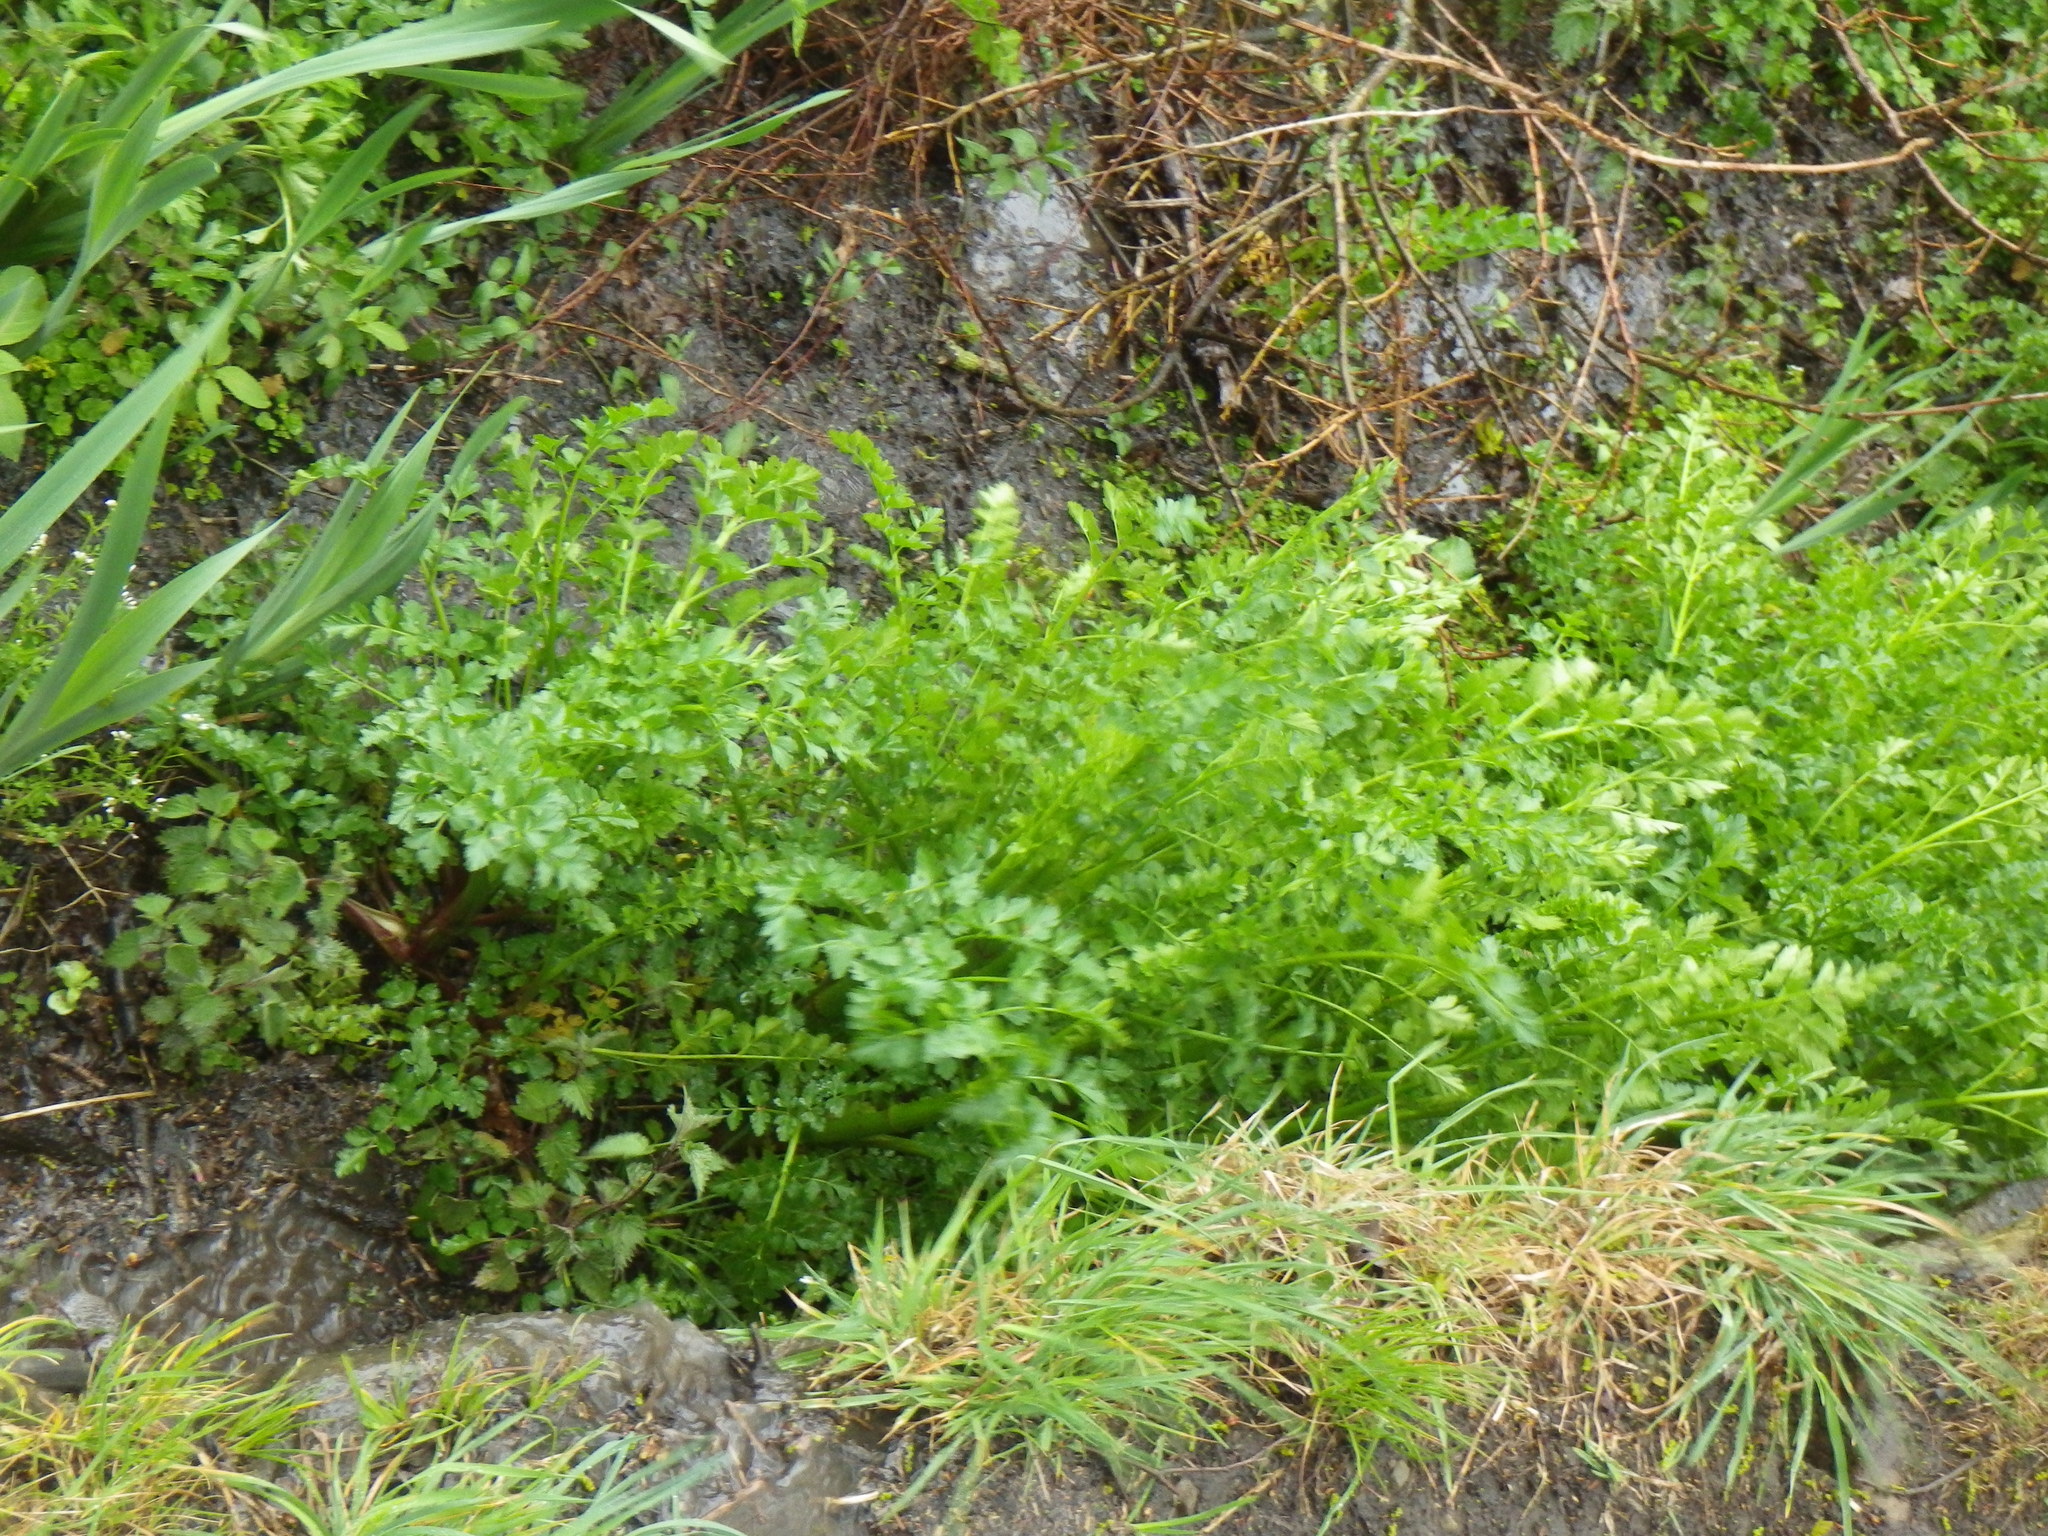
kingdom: Plantae
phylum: Tracheophyta
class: Magnoliopsida
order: Apiales
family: Apiaceae
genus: Oenanthe
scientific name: Oenanthe crocata
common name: Hemlock water-dropwort
